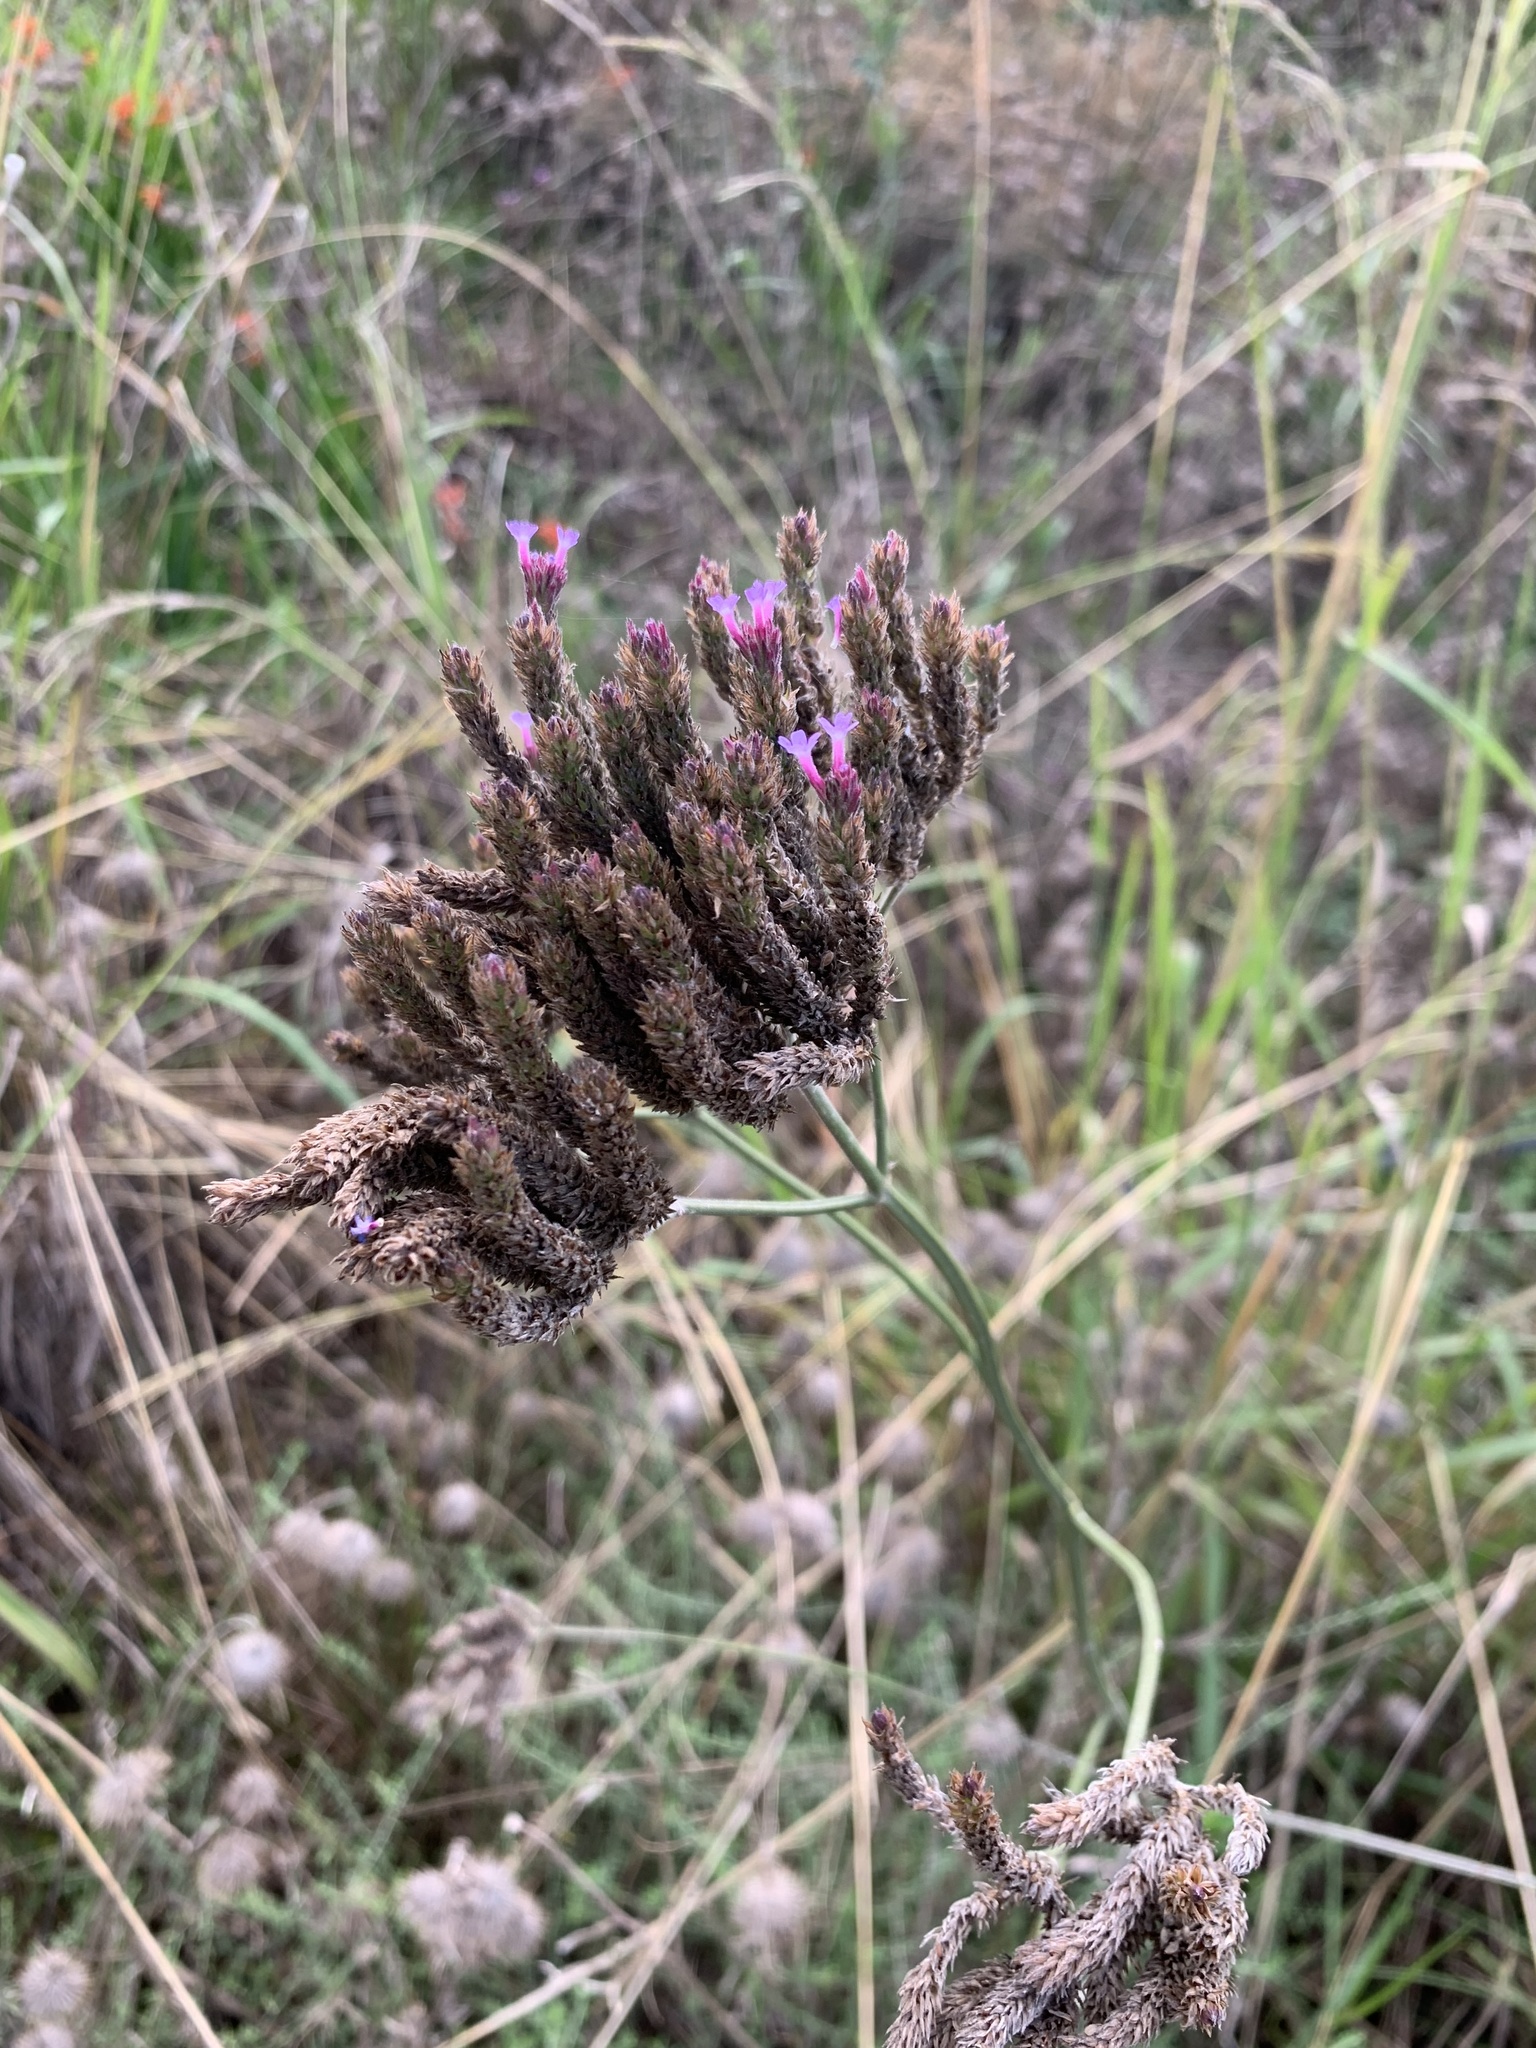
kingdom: Plantae
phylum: Tracheophyta
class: Magnoliopsida
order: Lamiales
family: Verbenaceae
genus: Verbena
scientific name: Verbena bonariensis
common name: Purpletop vervain
